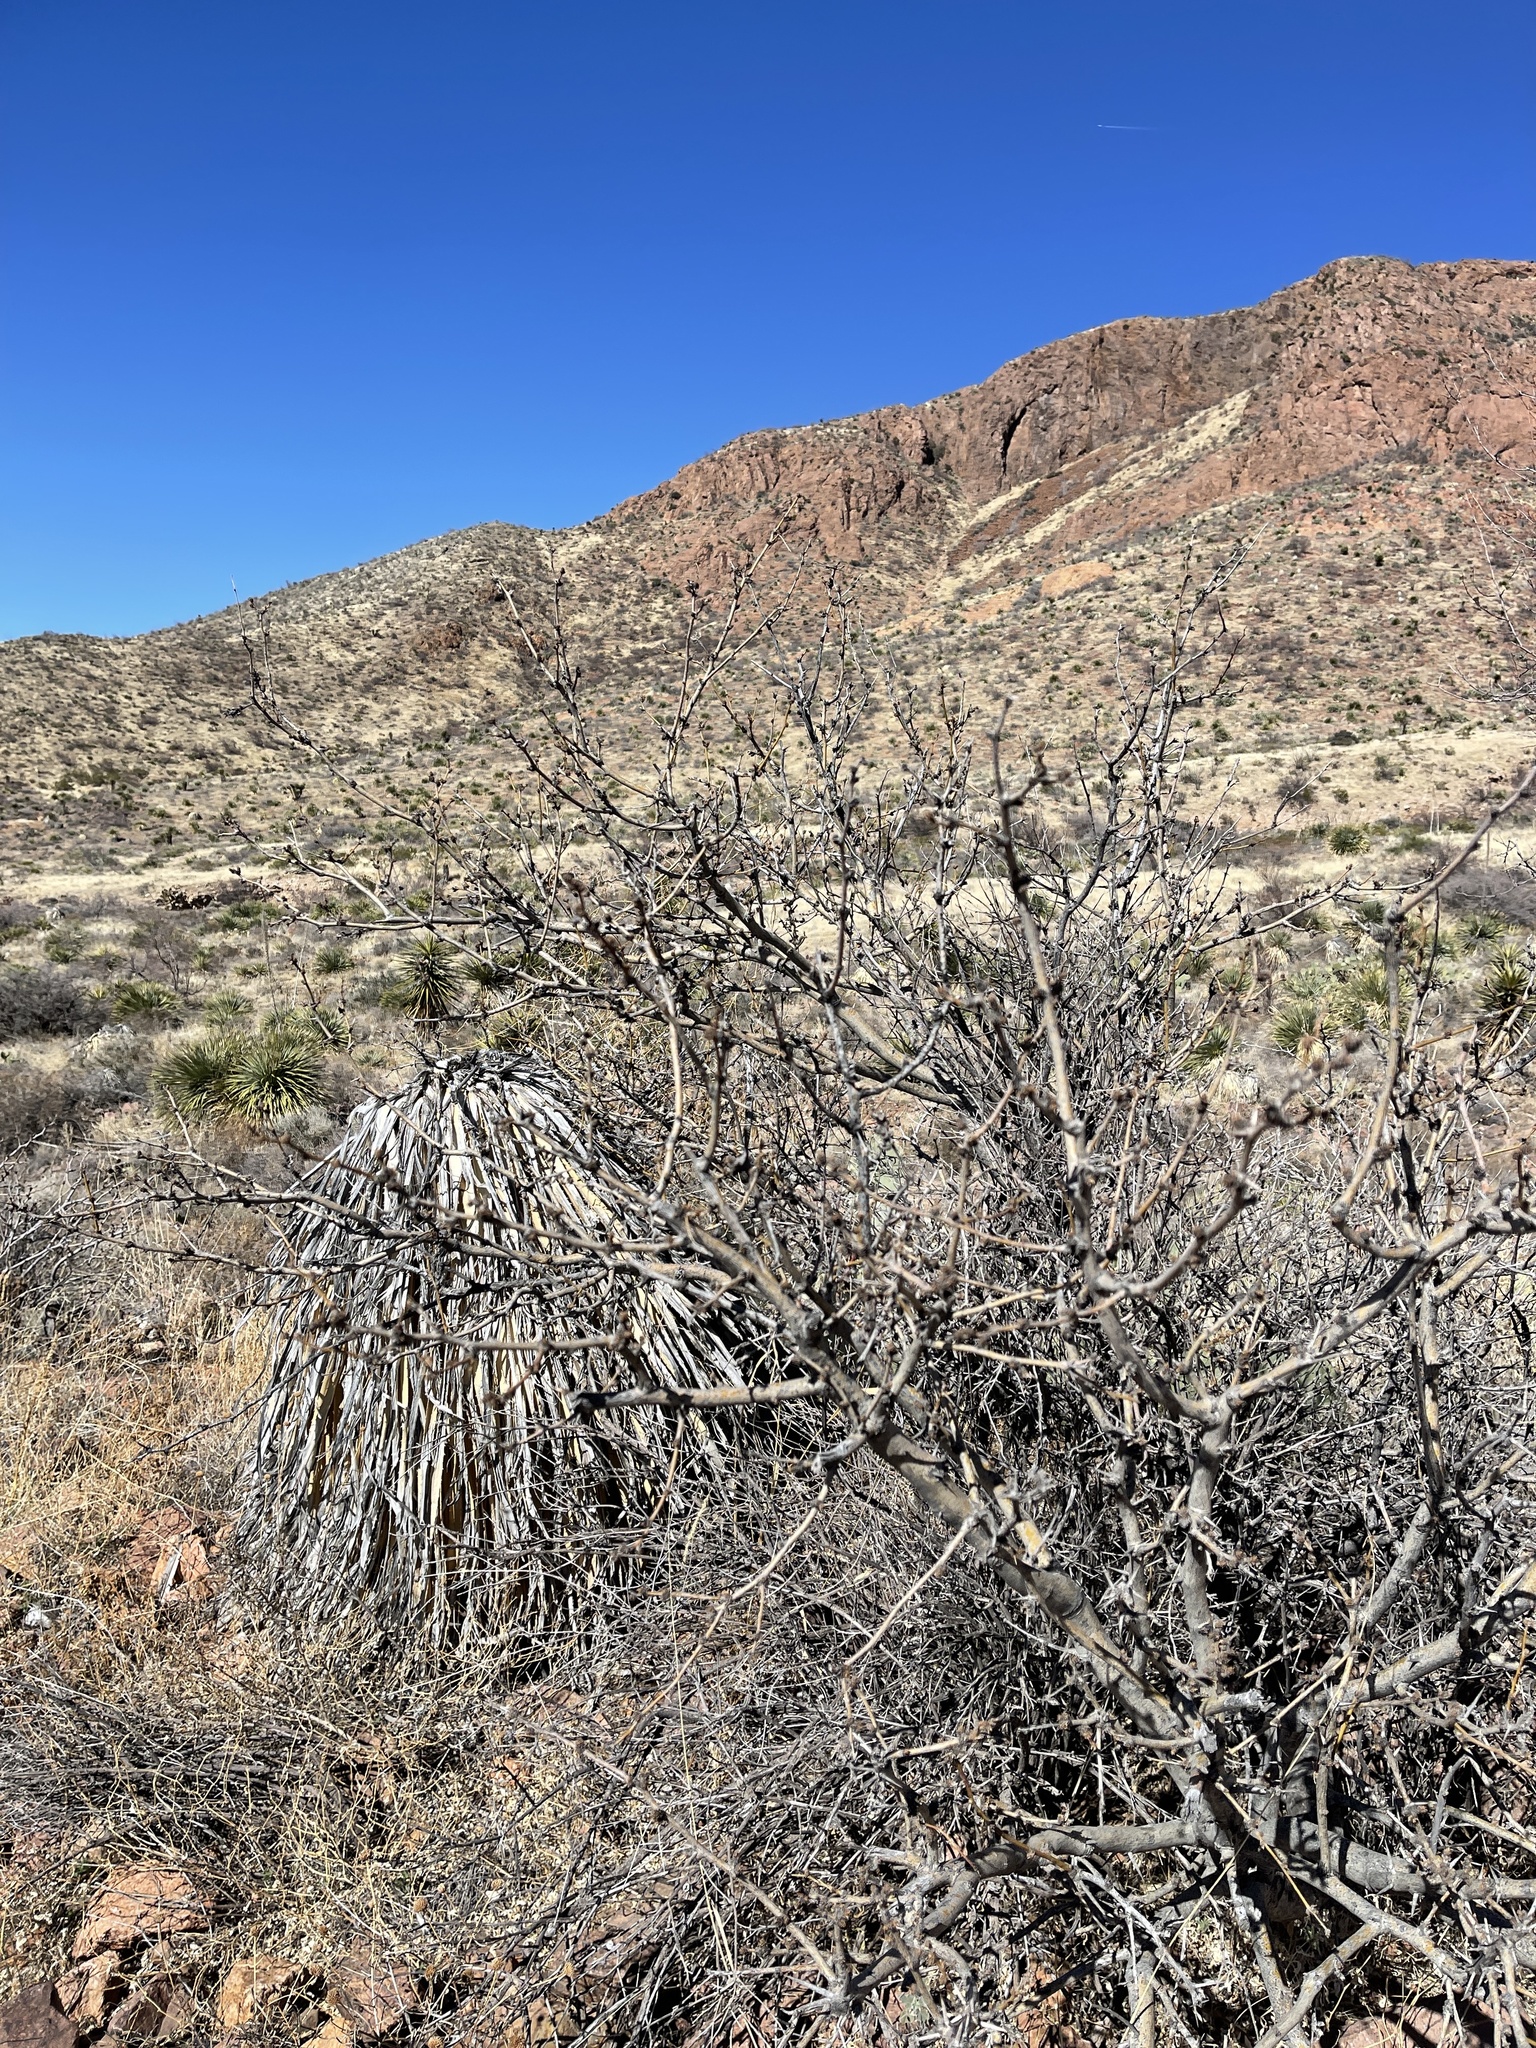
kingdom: Plantae
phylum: Tracheophyta
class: Magnoliopsida
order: Fabales
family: Fabaceae
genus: Prosopis
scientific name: Prosopis glandulosa
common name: Honey mesquite
